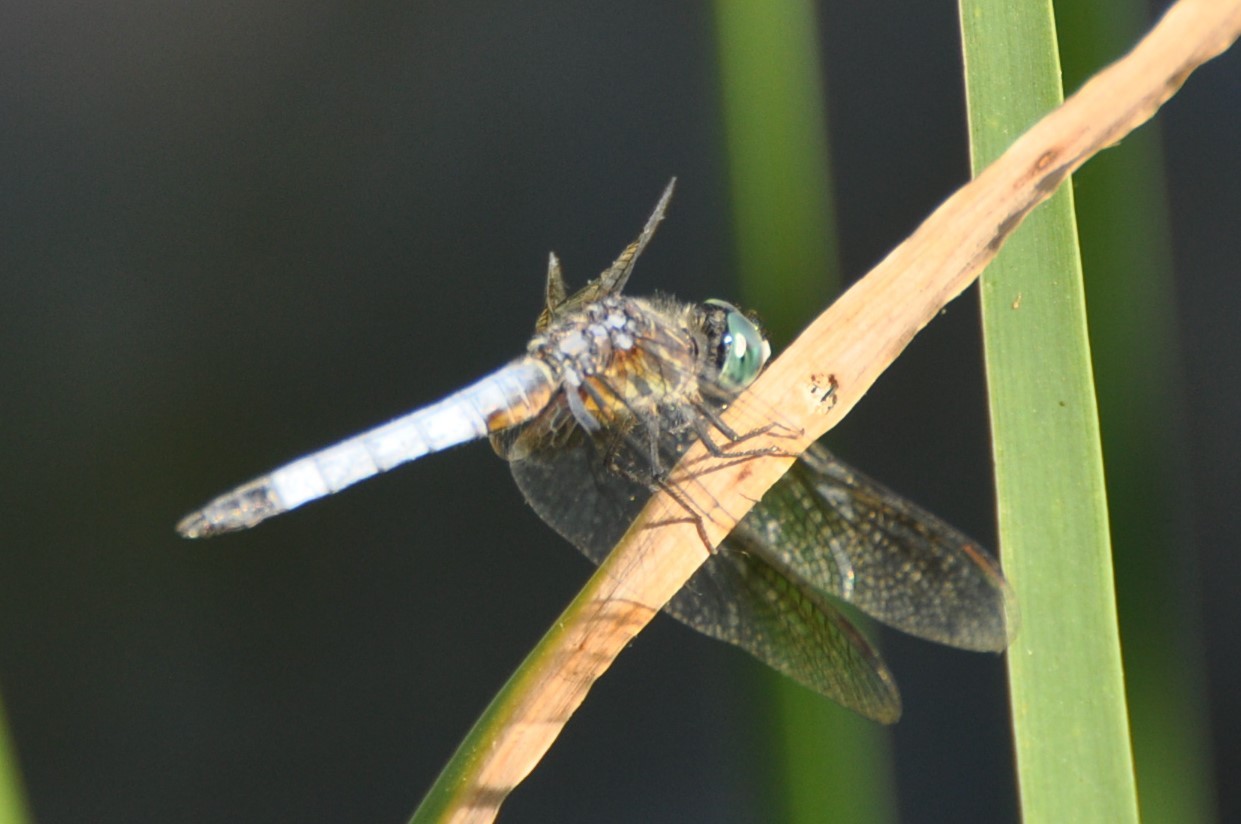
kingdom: Animalia
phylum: Arthropoda
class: Insecta
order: Odonata
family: Libellulidae
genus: Pachydiplax
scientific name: Pachydiplax longipennis
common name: Blue dasher
